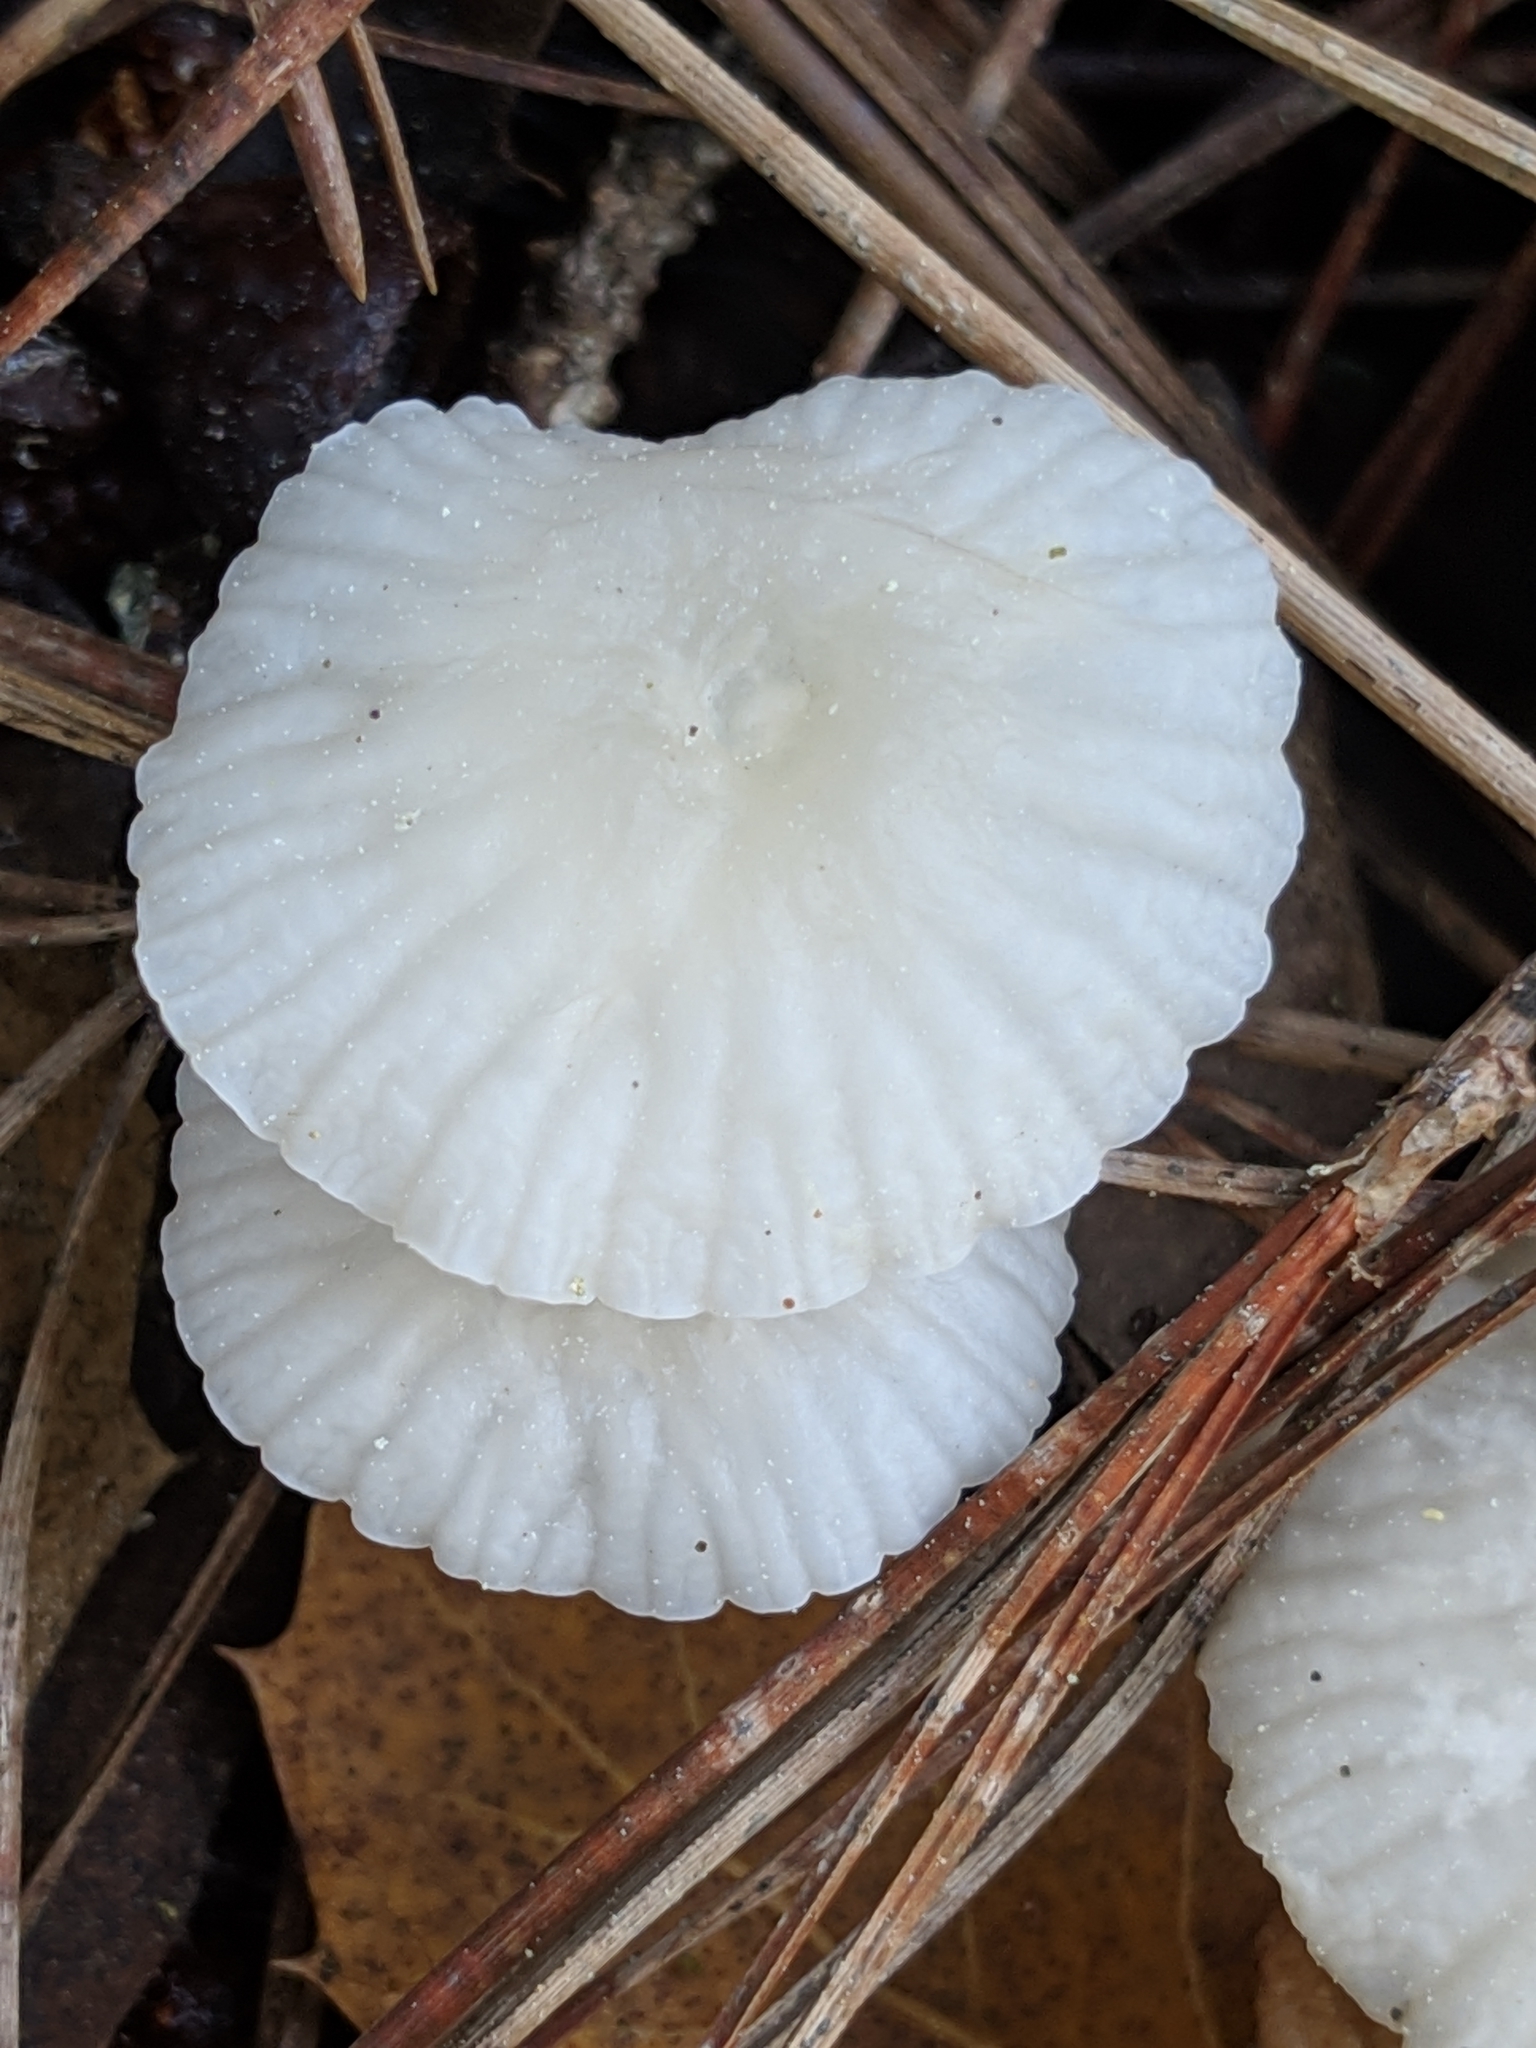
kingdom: Fungi
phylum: Basidiomycota
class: Agaricomycetes
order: Agaricales
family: Marasmiaceae
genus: Marasmius
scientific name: Marasmius calhouniae
